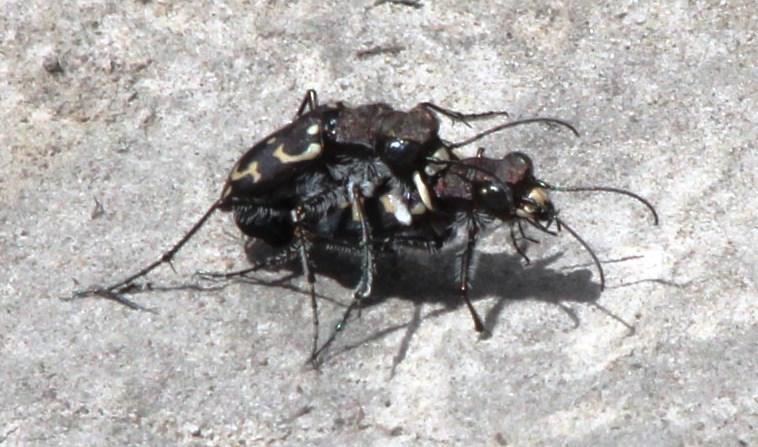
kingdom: Animalia
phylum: Arthropoda
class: Insecta
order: Coleoptera
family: Carabidae
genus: Cicindela
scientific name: Cicindela lurida
